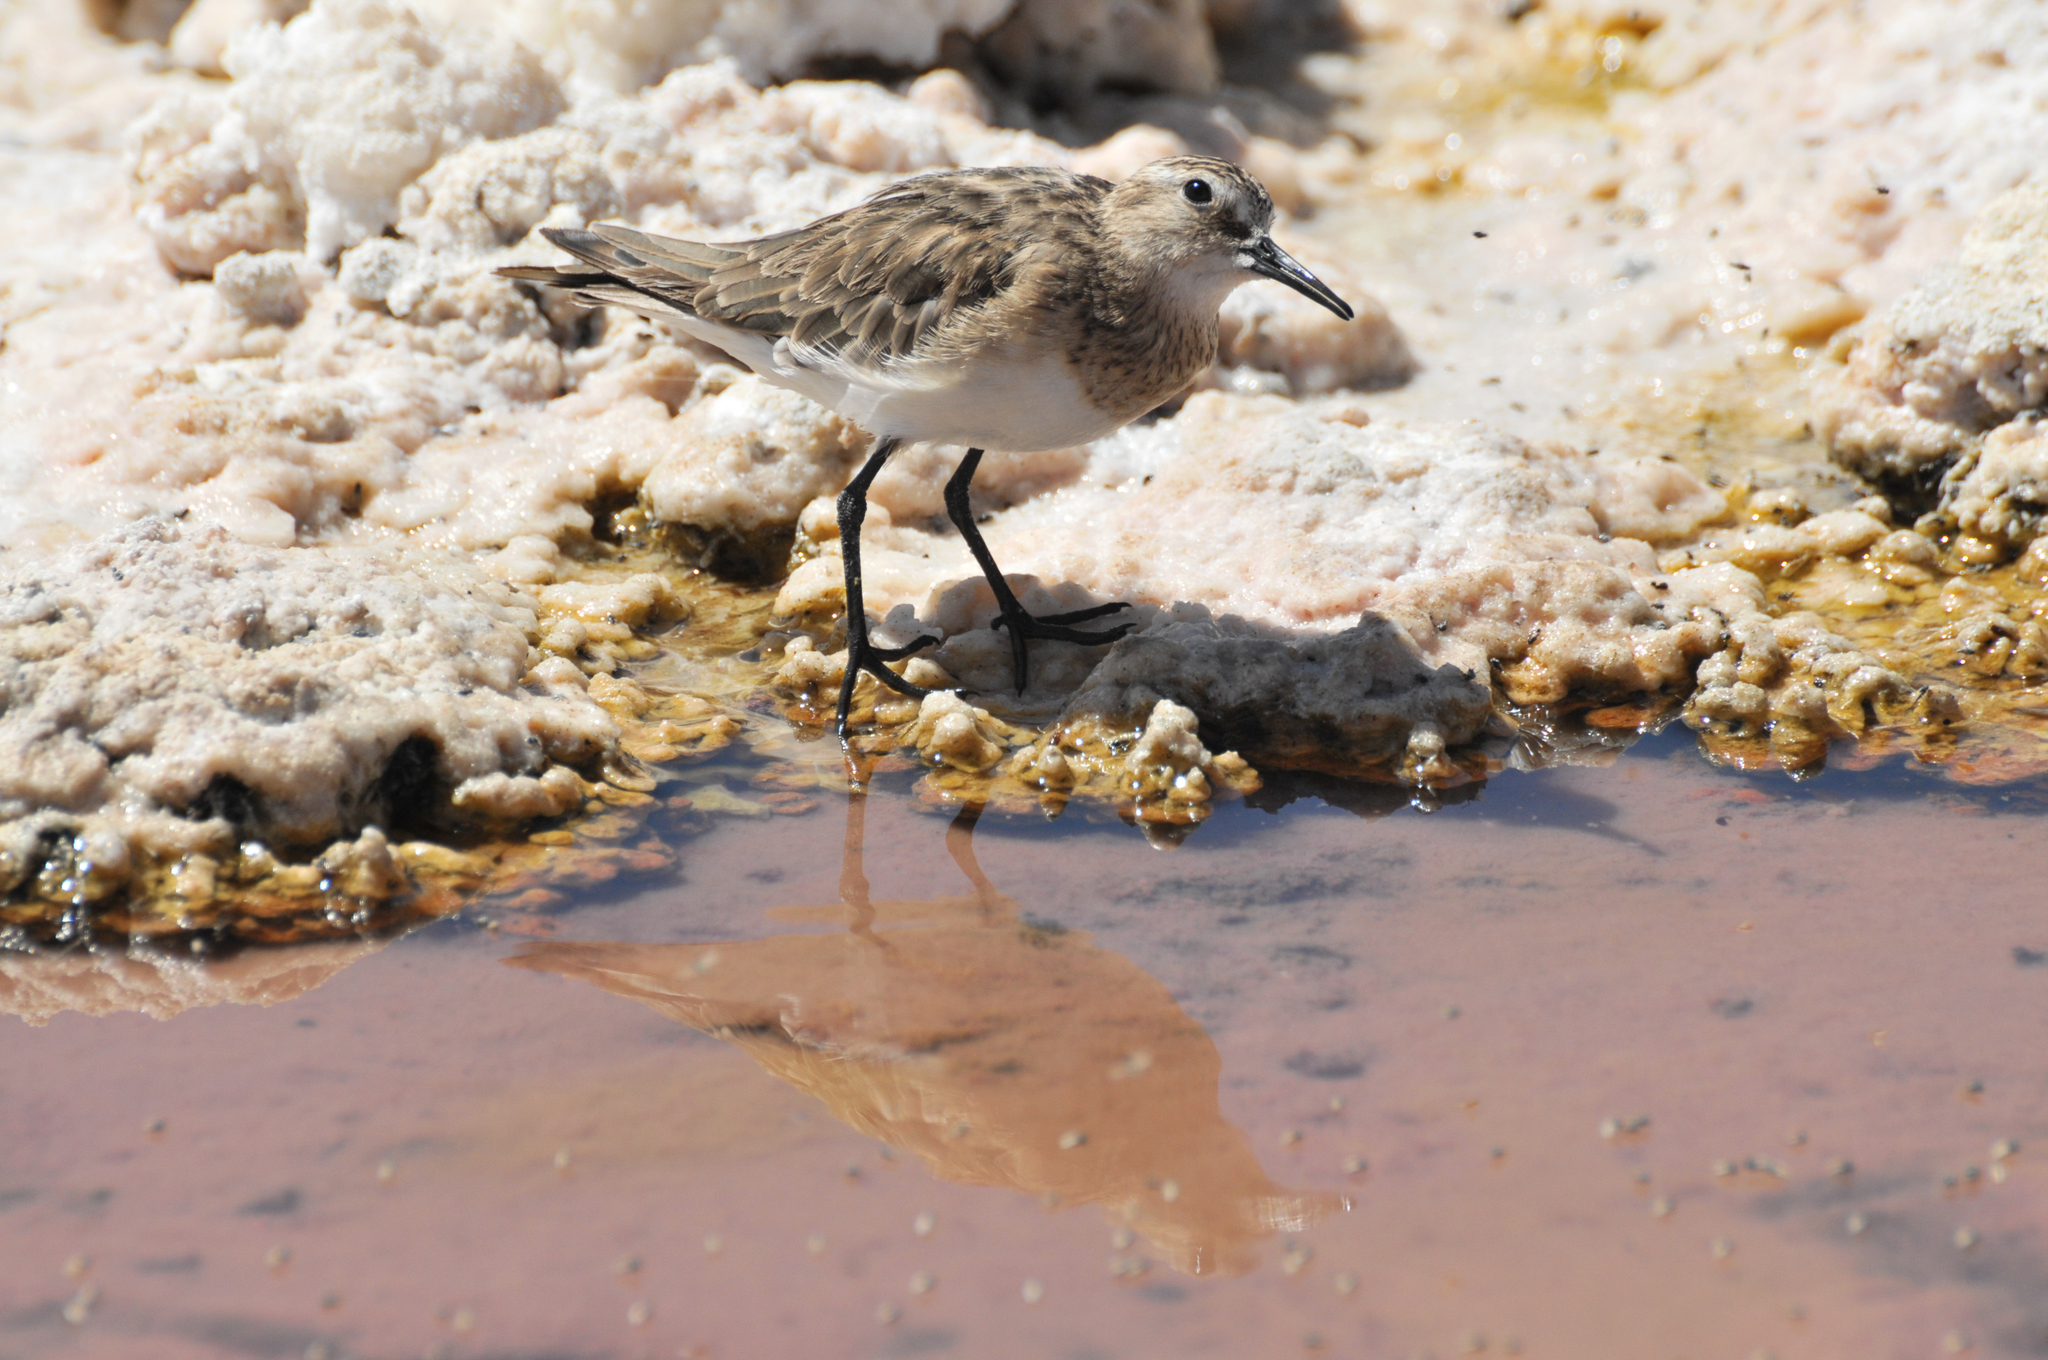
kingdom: Animalia
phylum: Chordata
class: Aves
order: Charadriiformes
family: Scolopacidae
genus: Calidris
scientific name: Calidris bairdii
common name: Baird's sandpiper
